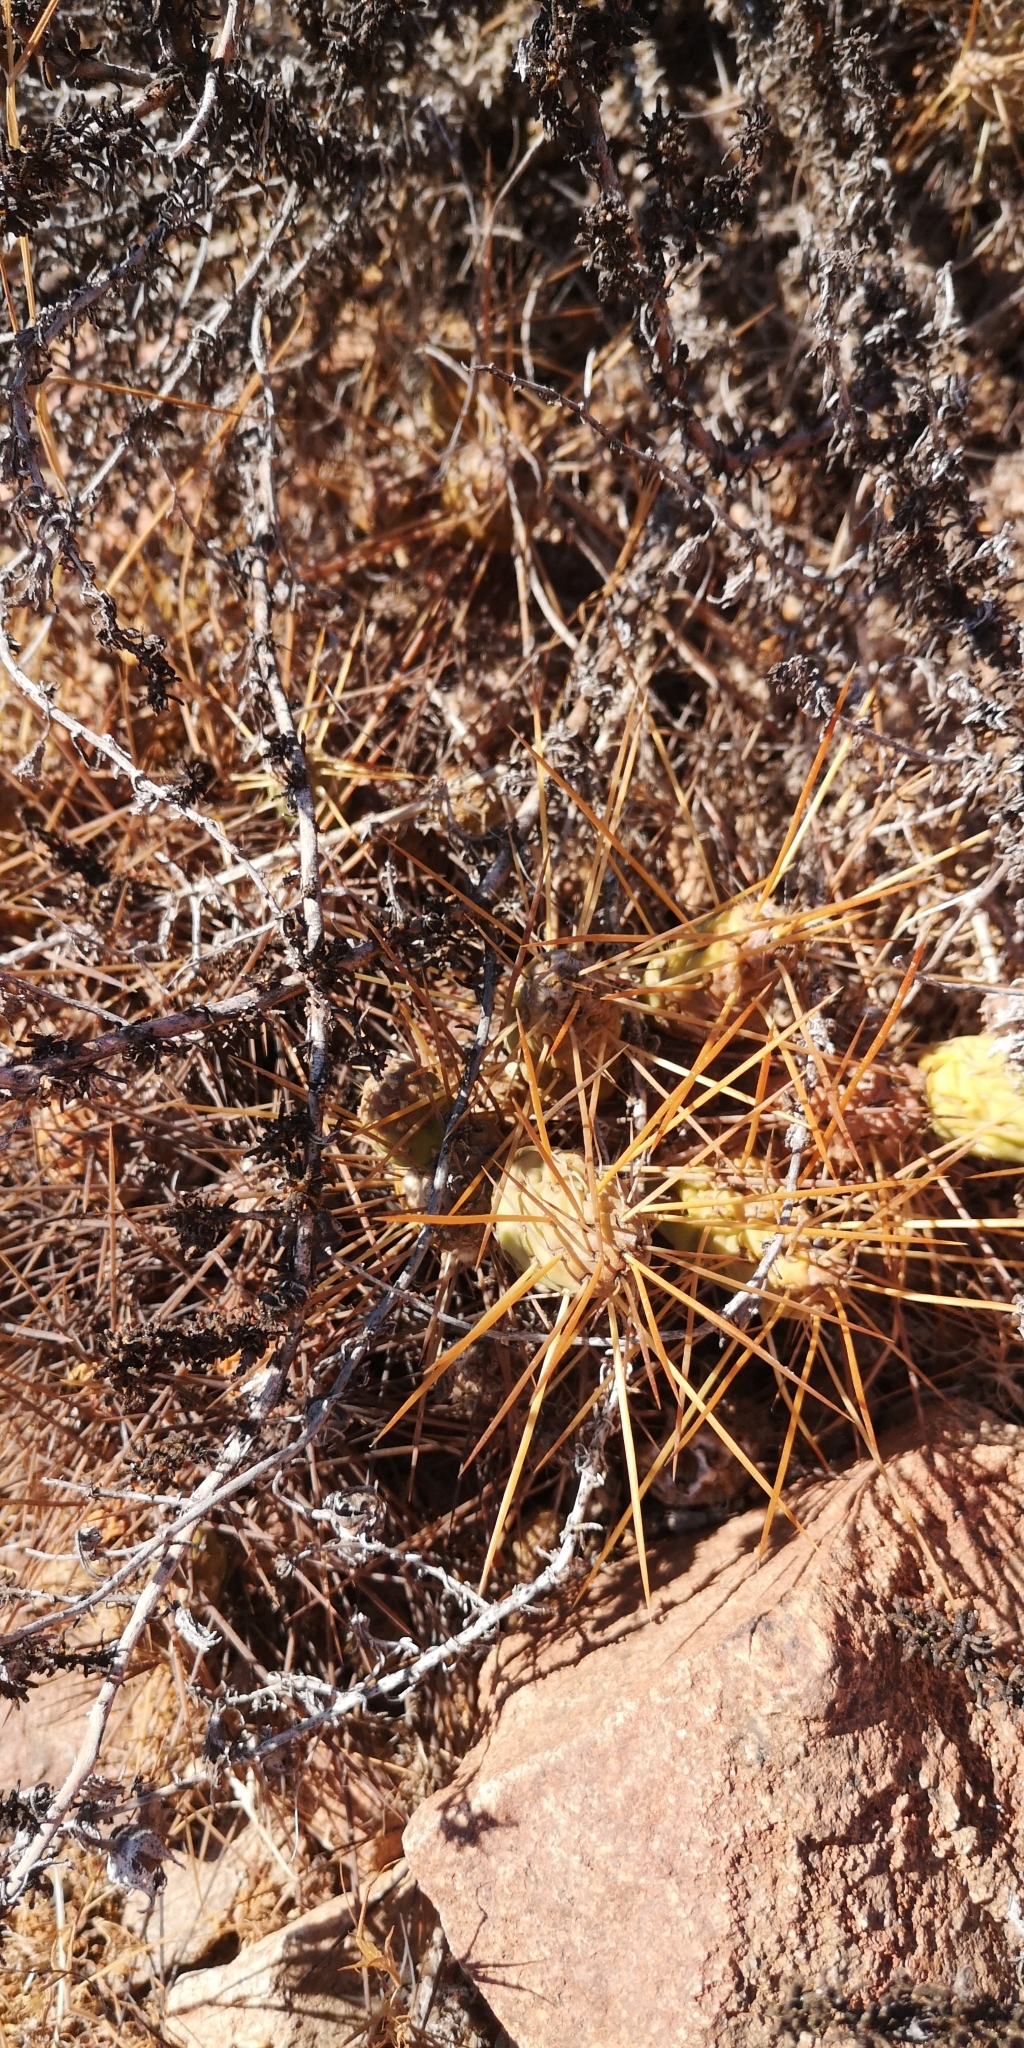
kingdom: Plantae
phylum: Tracheophyta
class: Magnoliopsida
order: Caryophyllales
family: Cactaceae
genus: Maihueniopsis
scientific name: Maihueniopsis crassispina
